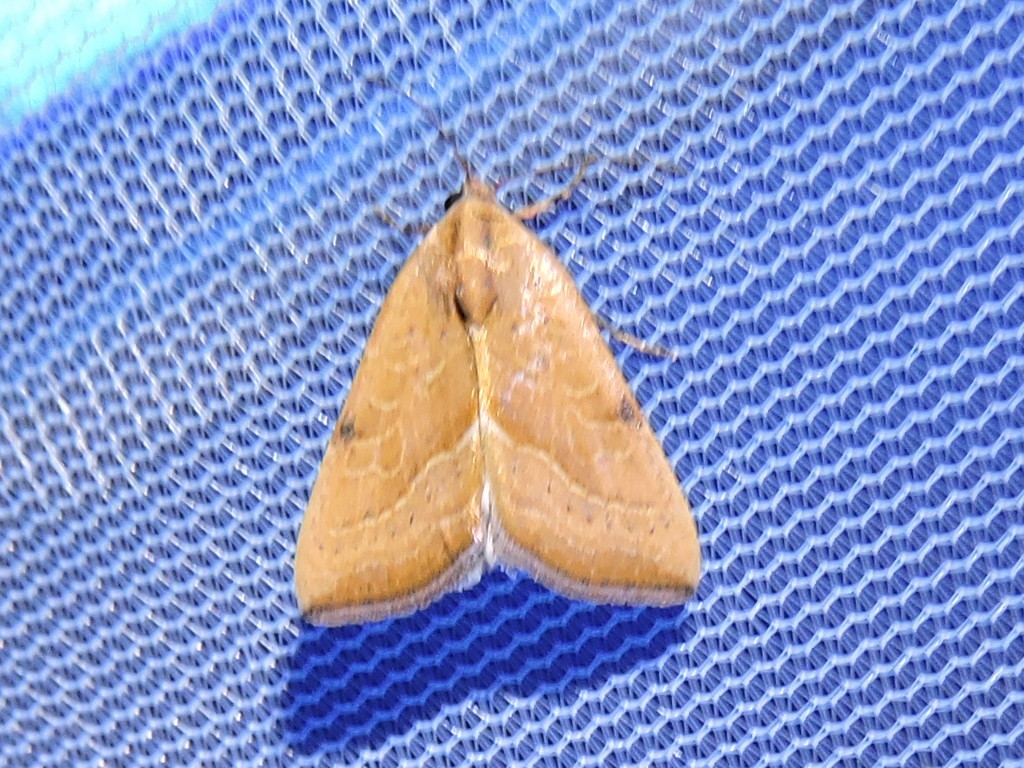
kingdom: Animalia
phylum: Arthropoda
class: Insecta
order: Lepidoptera
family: Noctuidae
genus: Galgula
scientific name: Galgula partita
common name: Wedgeling
